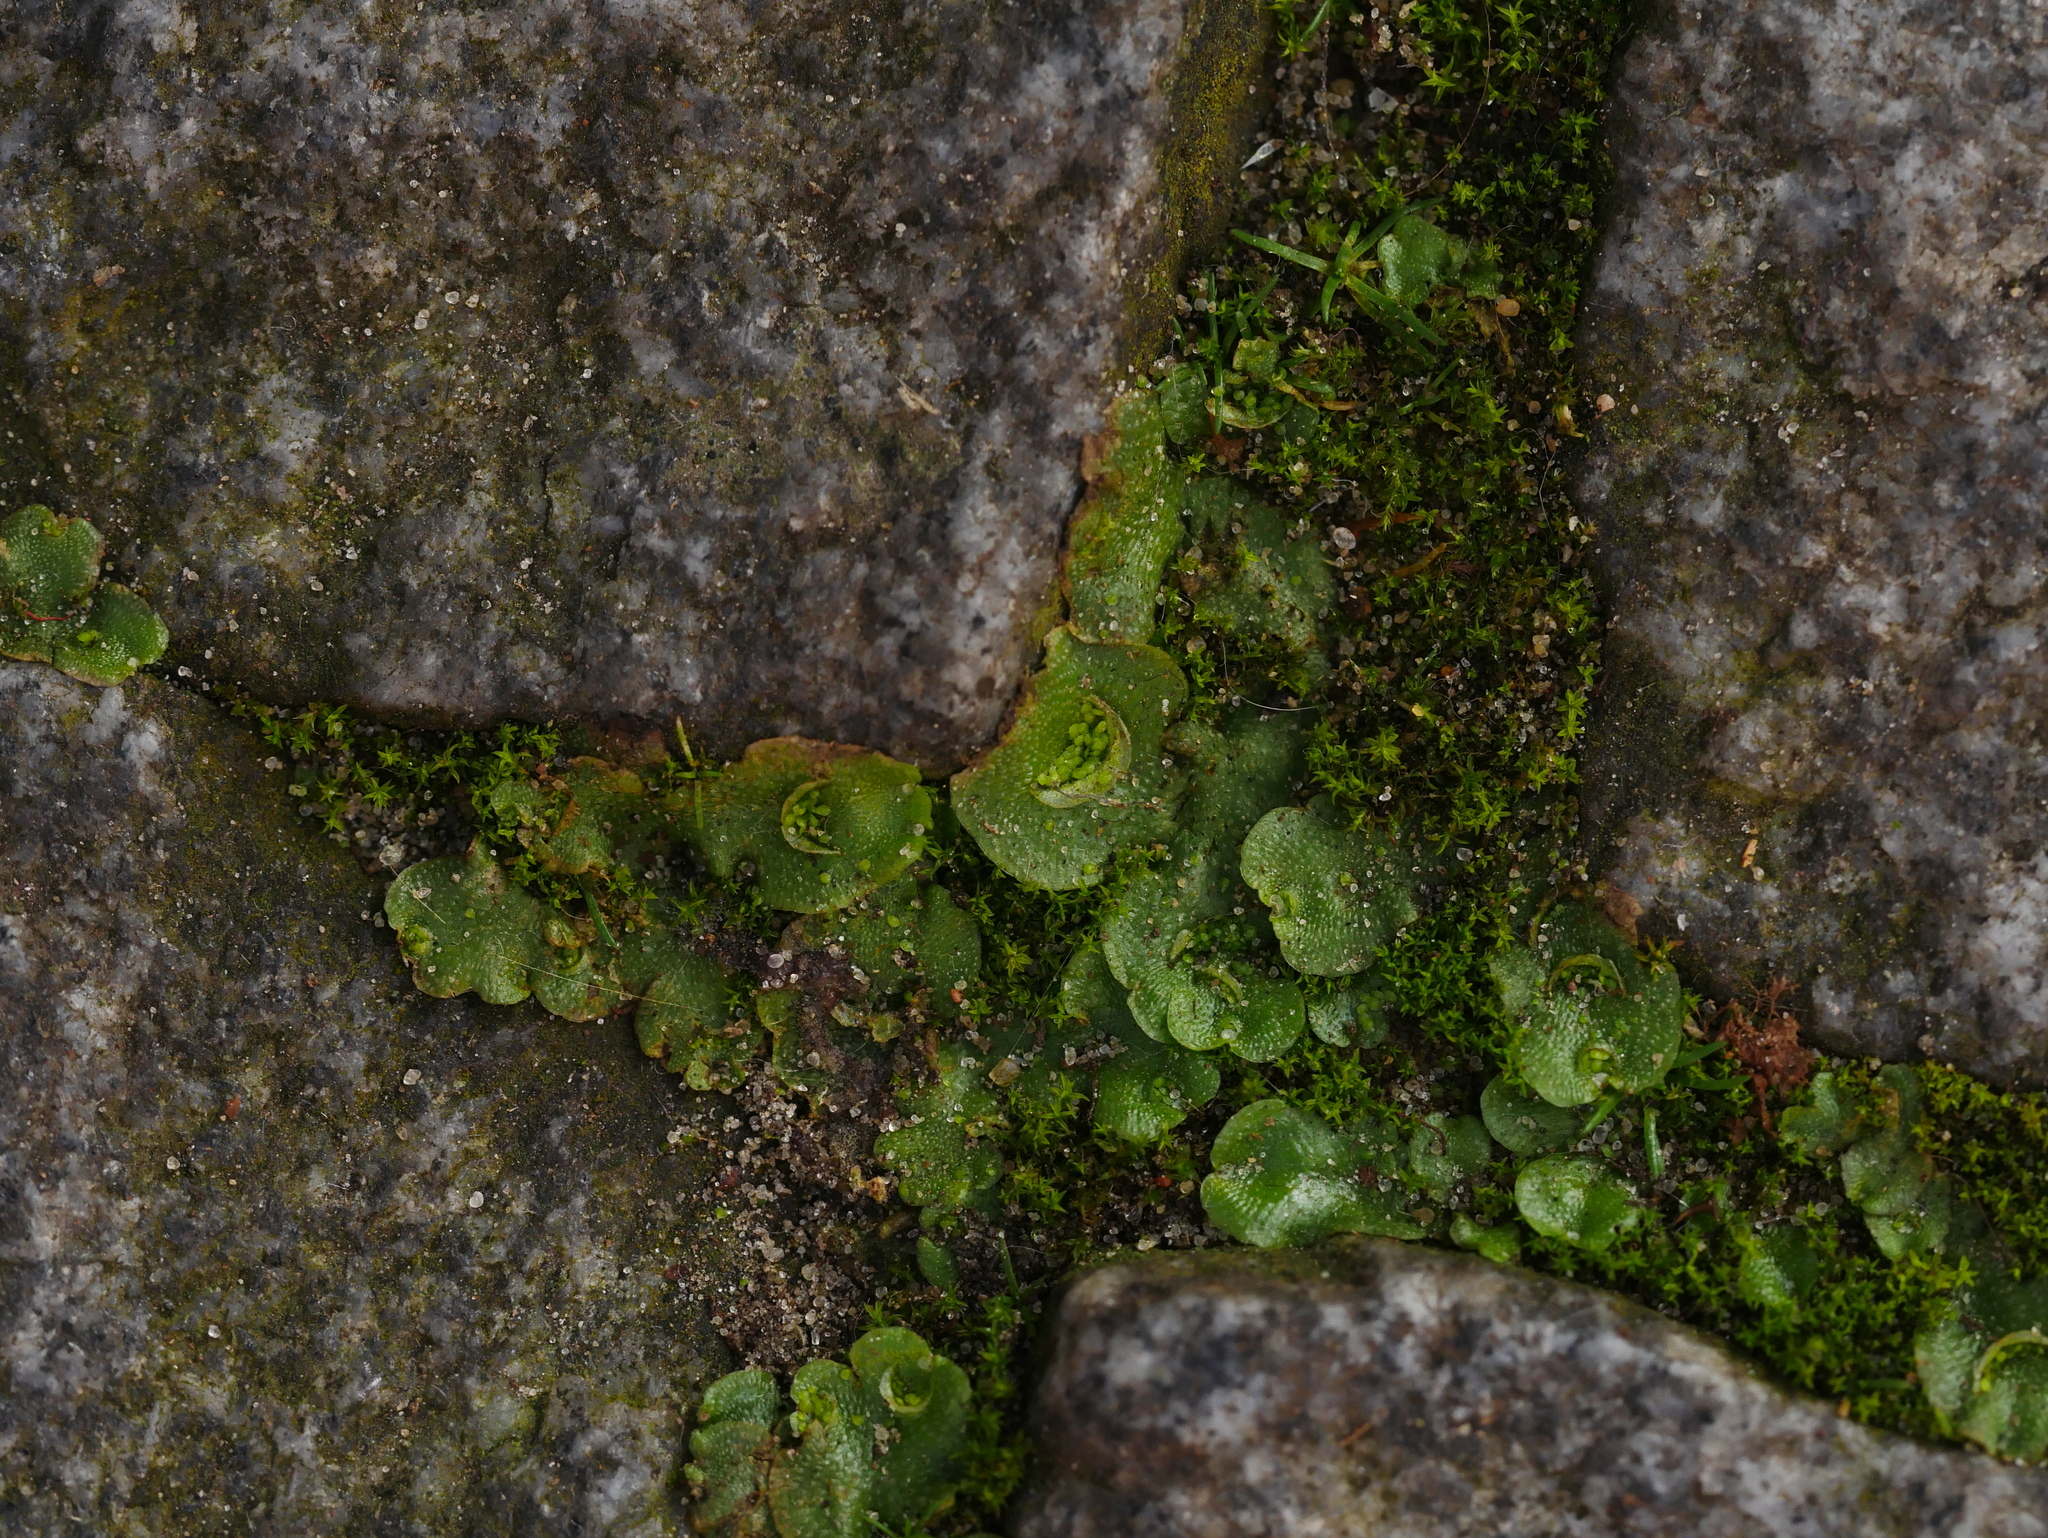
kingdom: Plantae
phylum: Marchantiophyta
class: Marchantiopsida
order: Lunulariales
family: Lunulariaceae
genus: Lunularia
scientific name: Lunularia cruciata
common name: Crescent-cup liverwort
